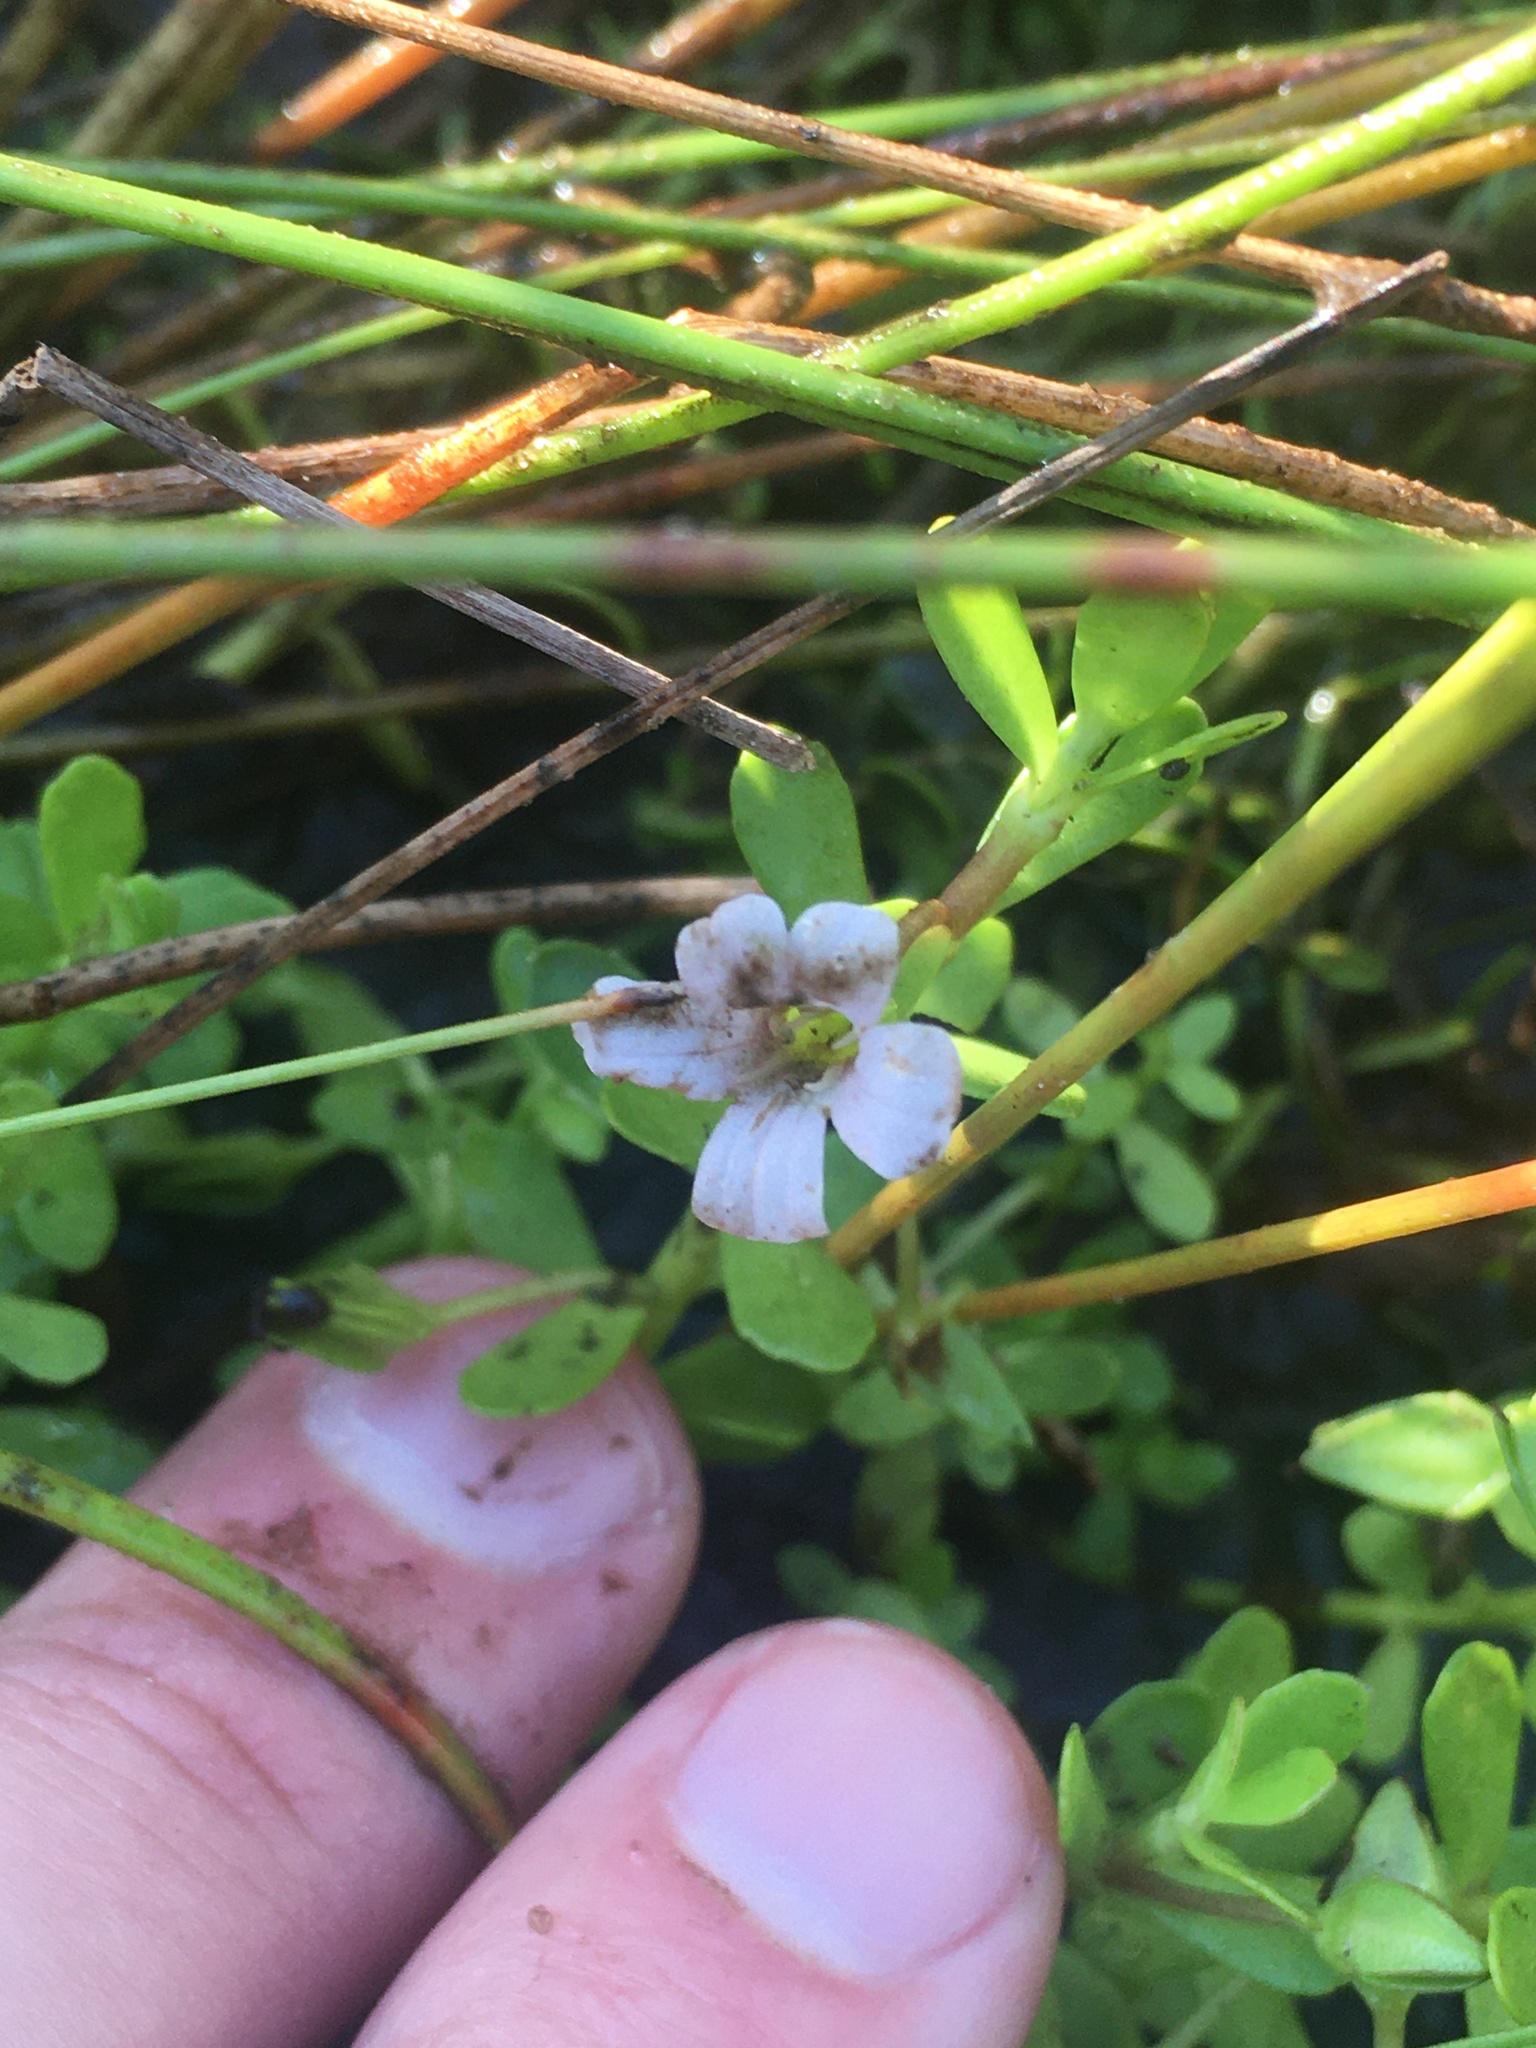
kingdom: Plantae
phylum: Tracheophyta
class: Magnoliopsida
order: Lamiales
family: Plantaginaceae
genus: Bacopa
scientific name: Bacopa monnieri
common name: Indian-pennywort
